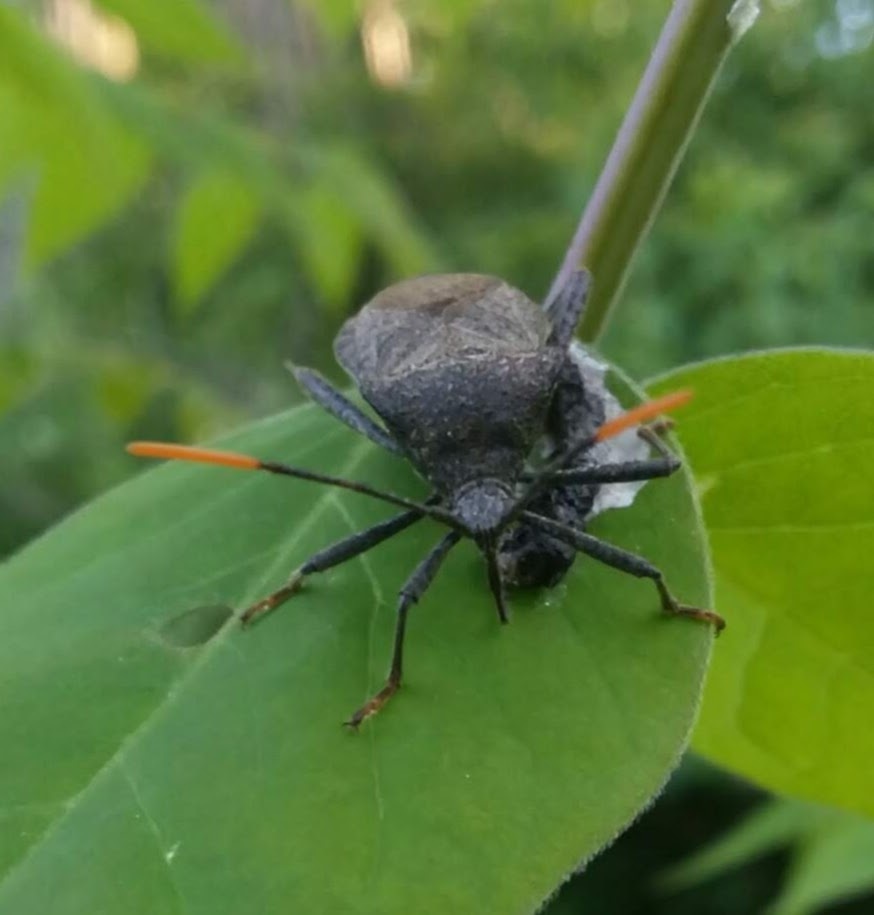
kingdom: Animalia
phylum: Arthropoda
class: Insecta
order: Hemiptera
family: Coreidae
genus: Acanthocephala
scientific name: Acanthocephala terminalis
